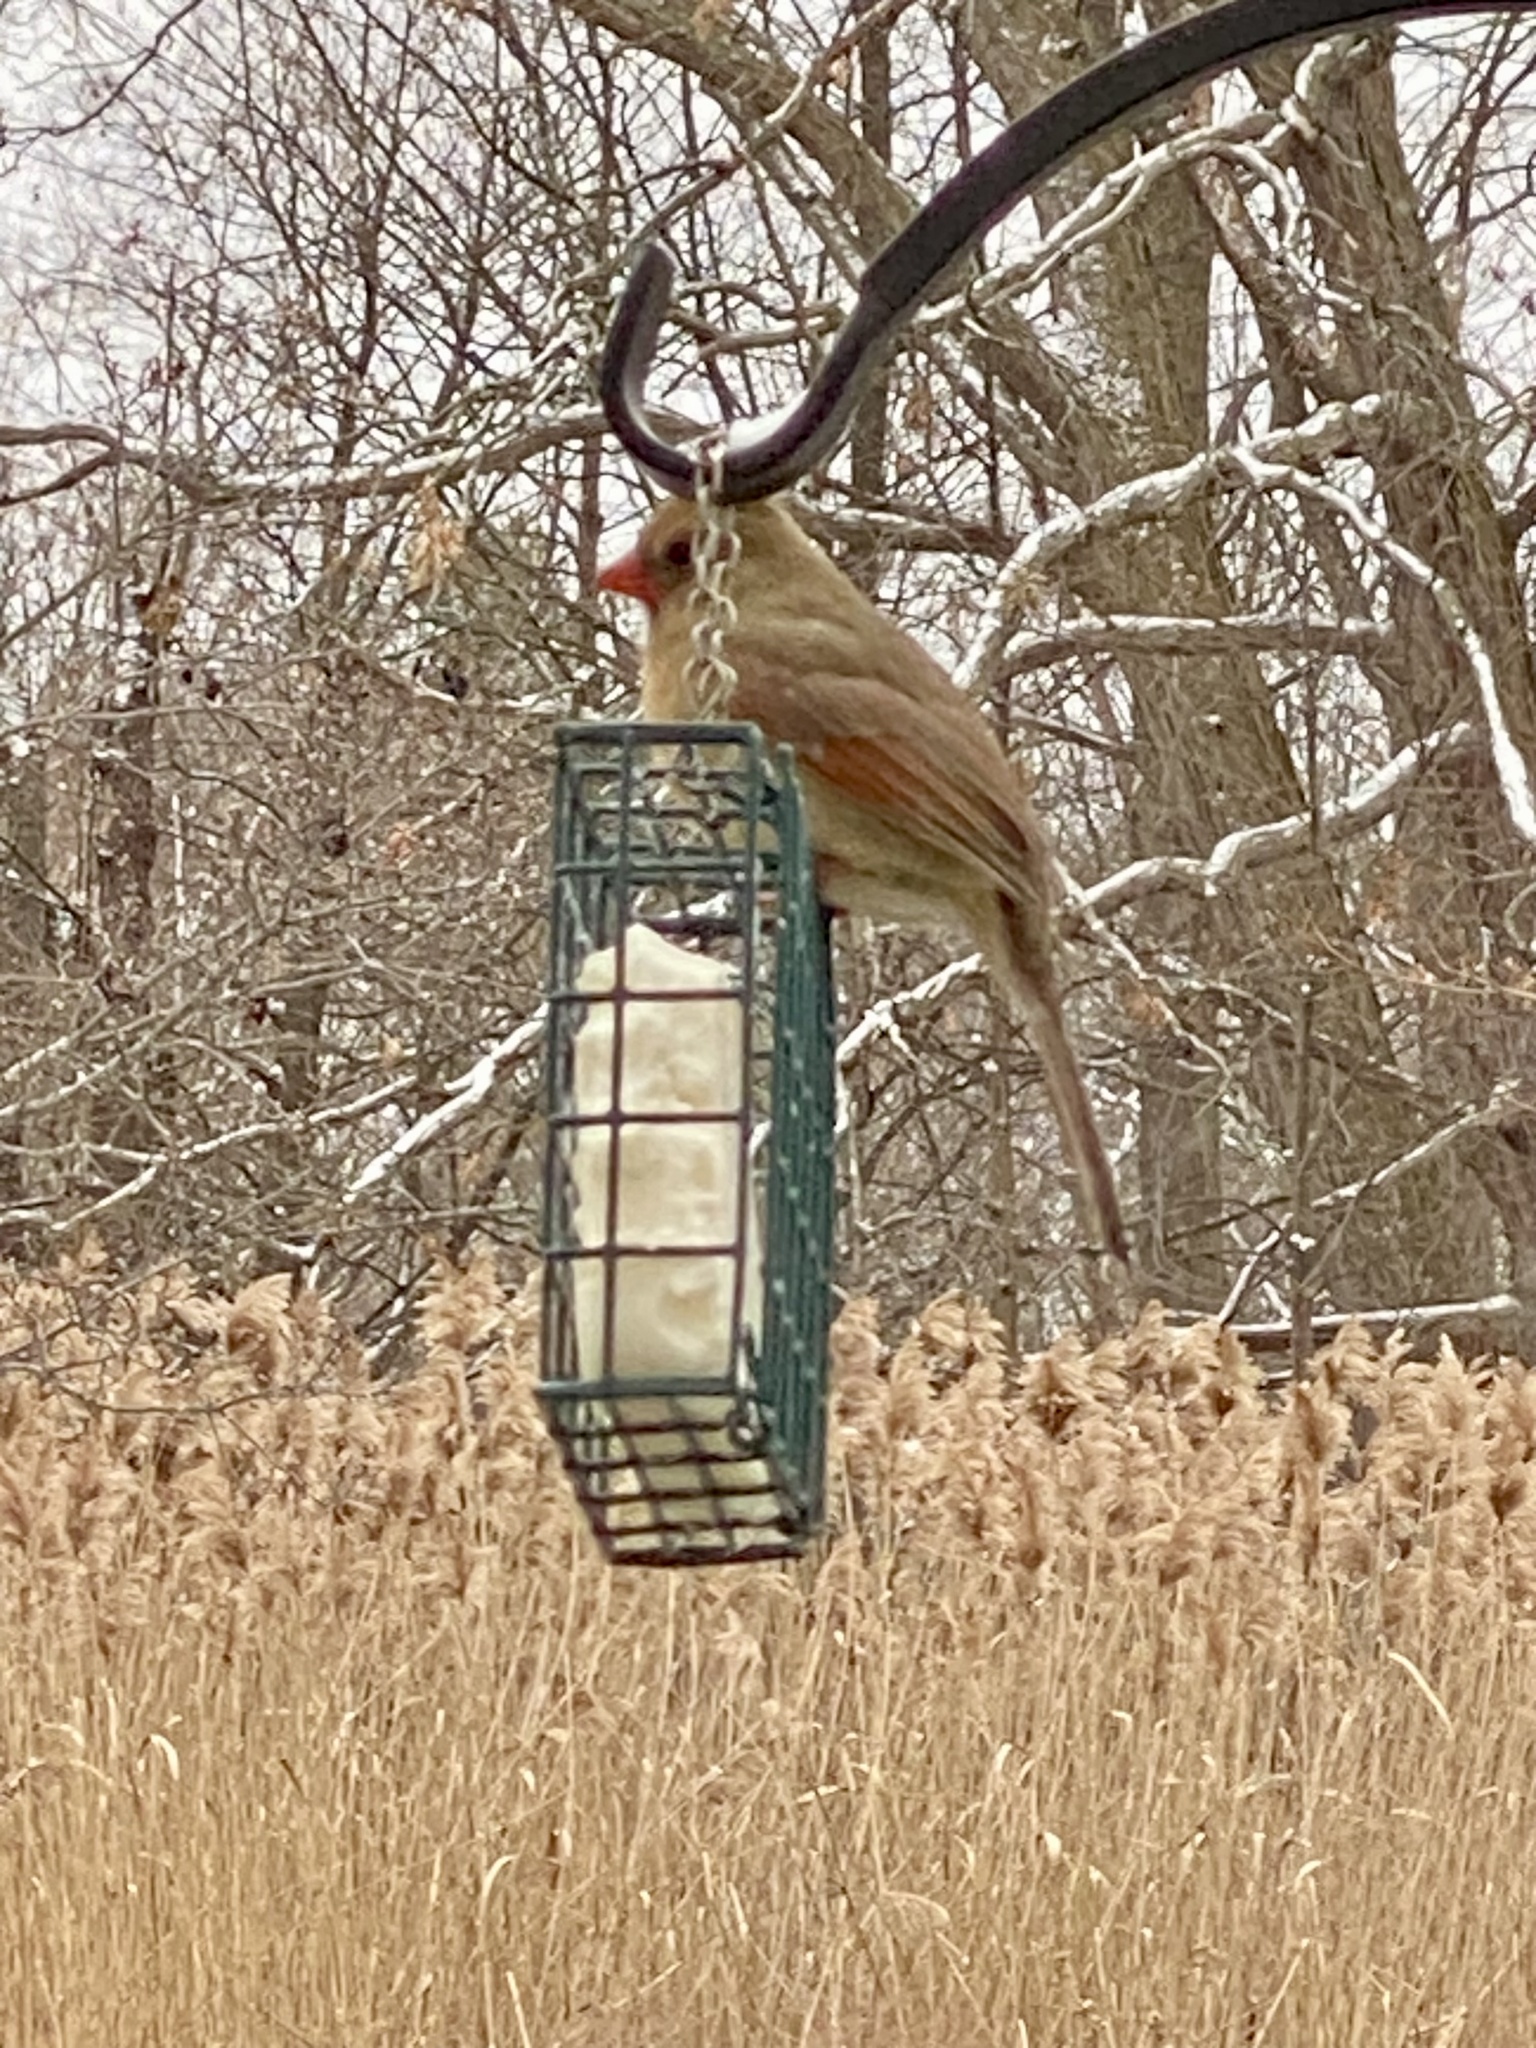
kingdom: Animalia
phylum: Chordata
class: Aves
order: Passeriformes
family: Cardinalidae
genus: Cardinalis
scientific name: Cardinalis cardinalis
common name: Northern cardinal
